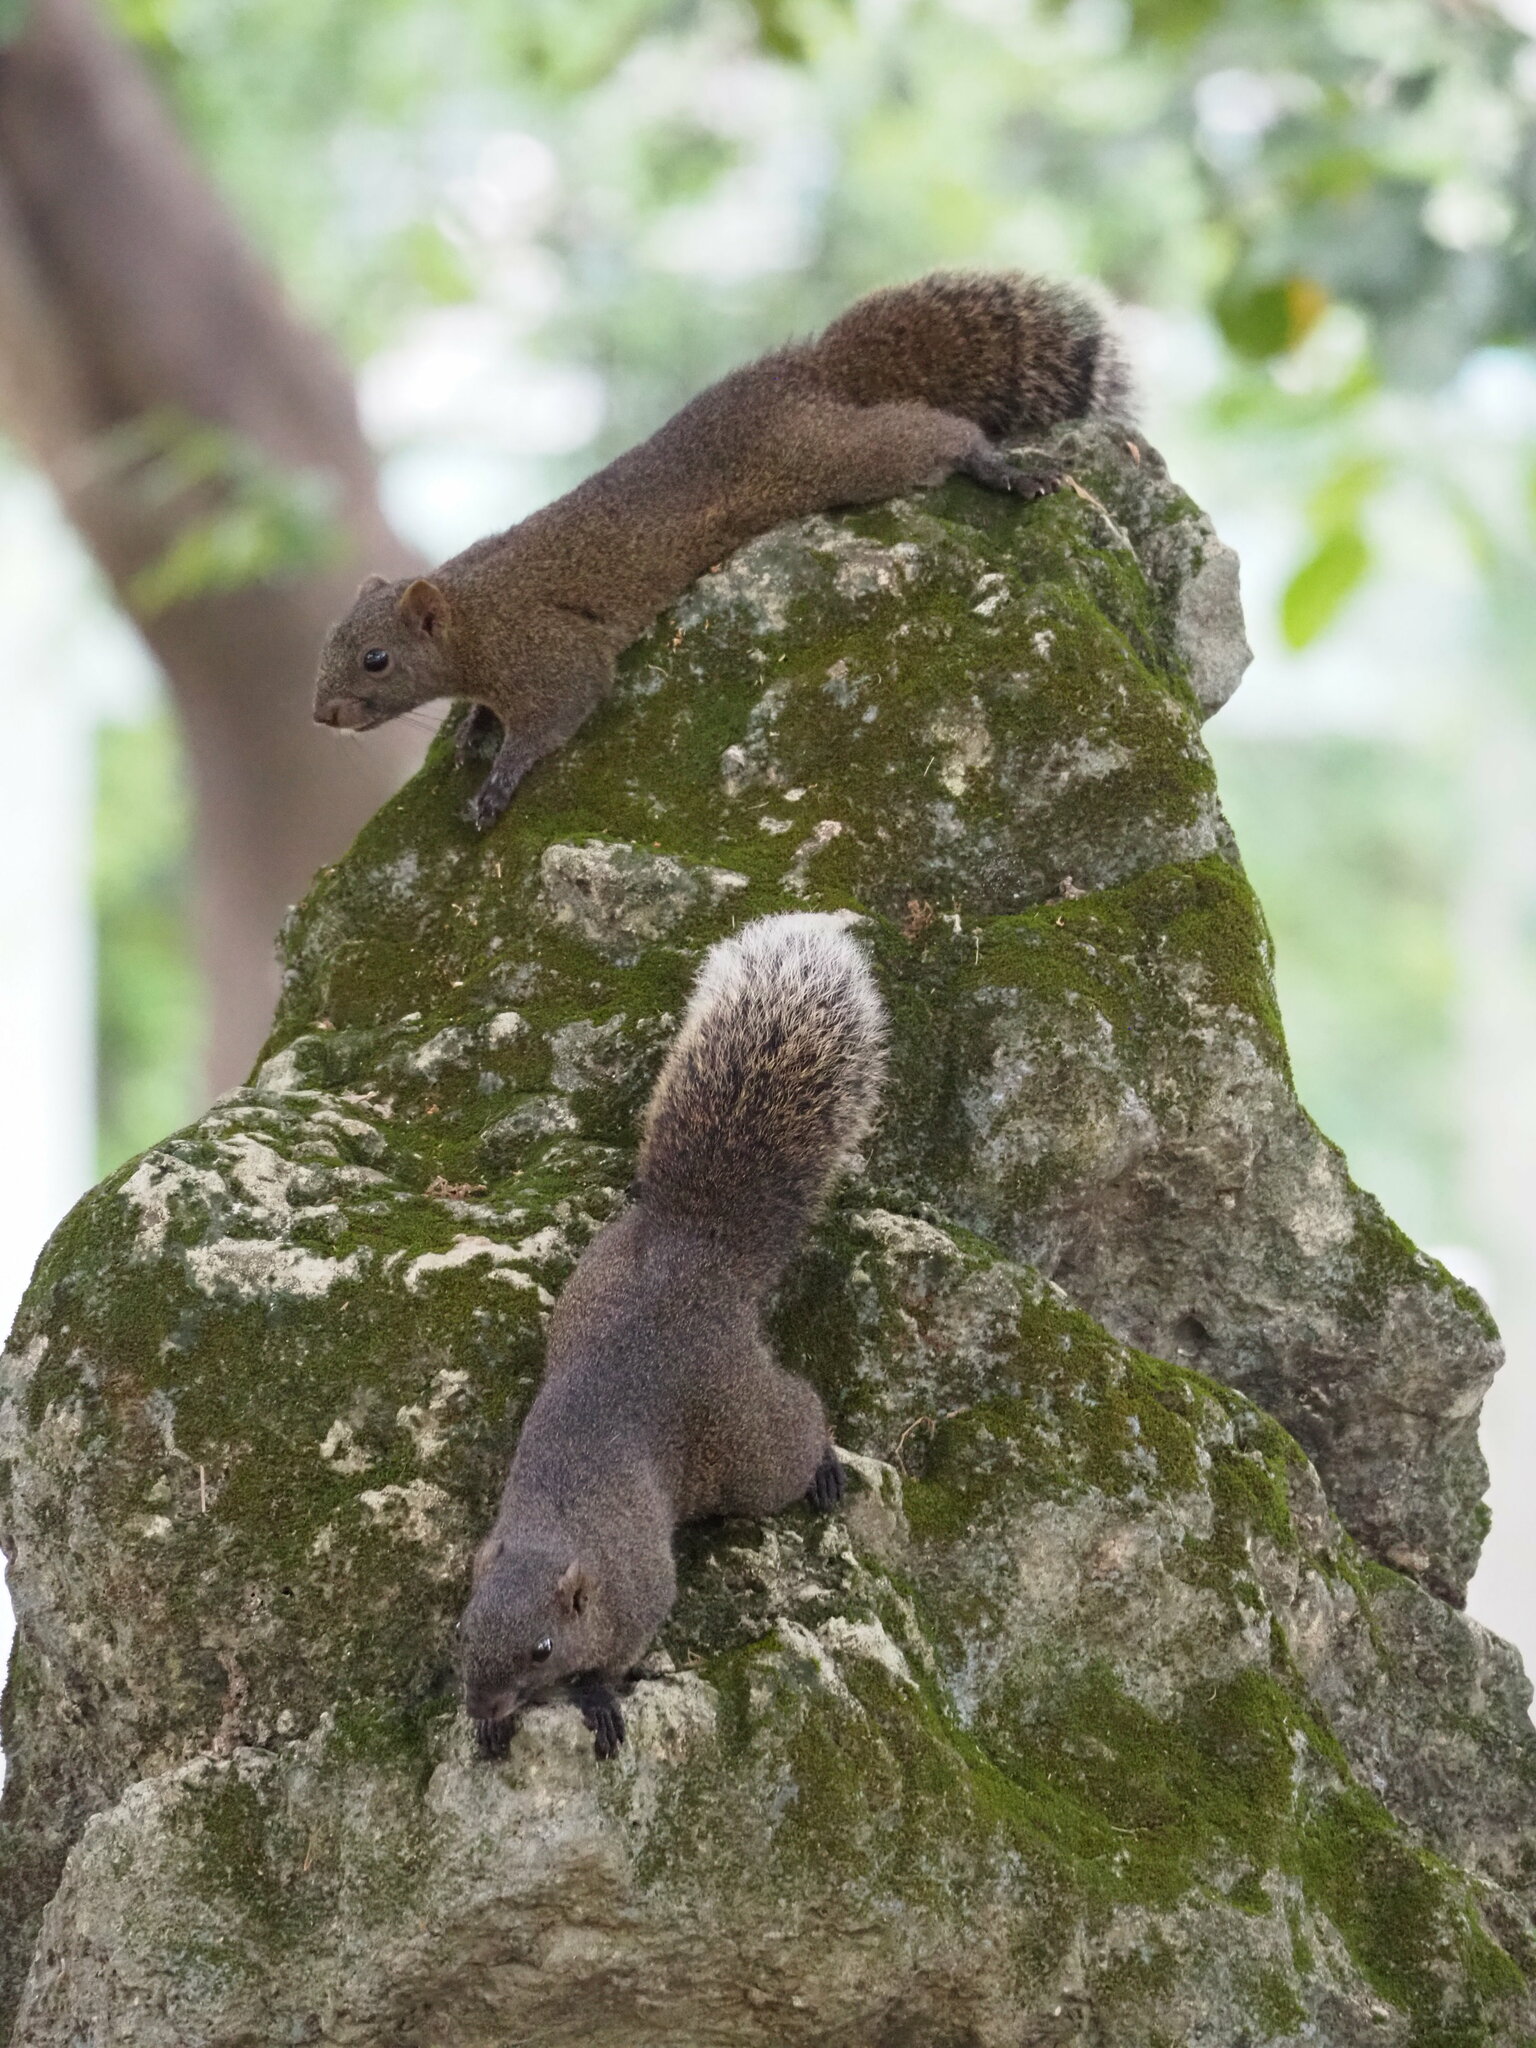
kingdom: Animalia
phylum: Chordata
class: Mammalia
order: Rodentia
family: Sciuridae
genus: Callosciurus
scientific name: Callosciurus erythraeus
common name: Pallas's squirrel
